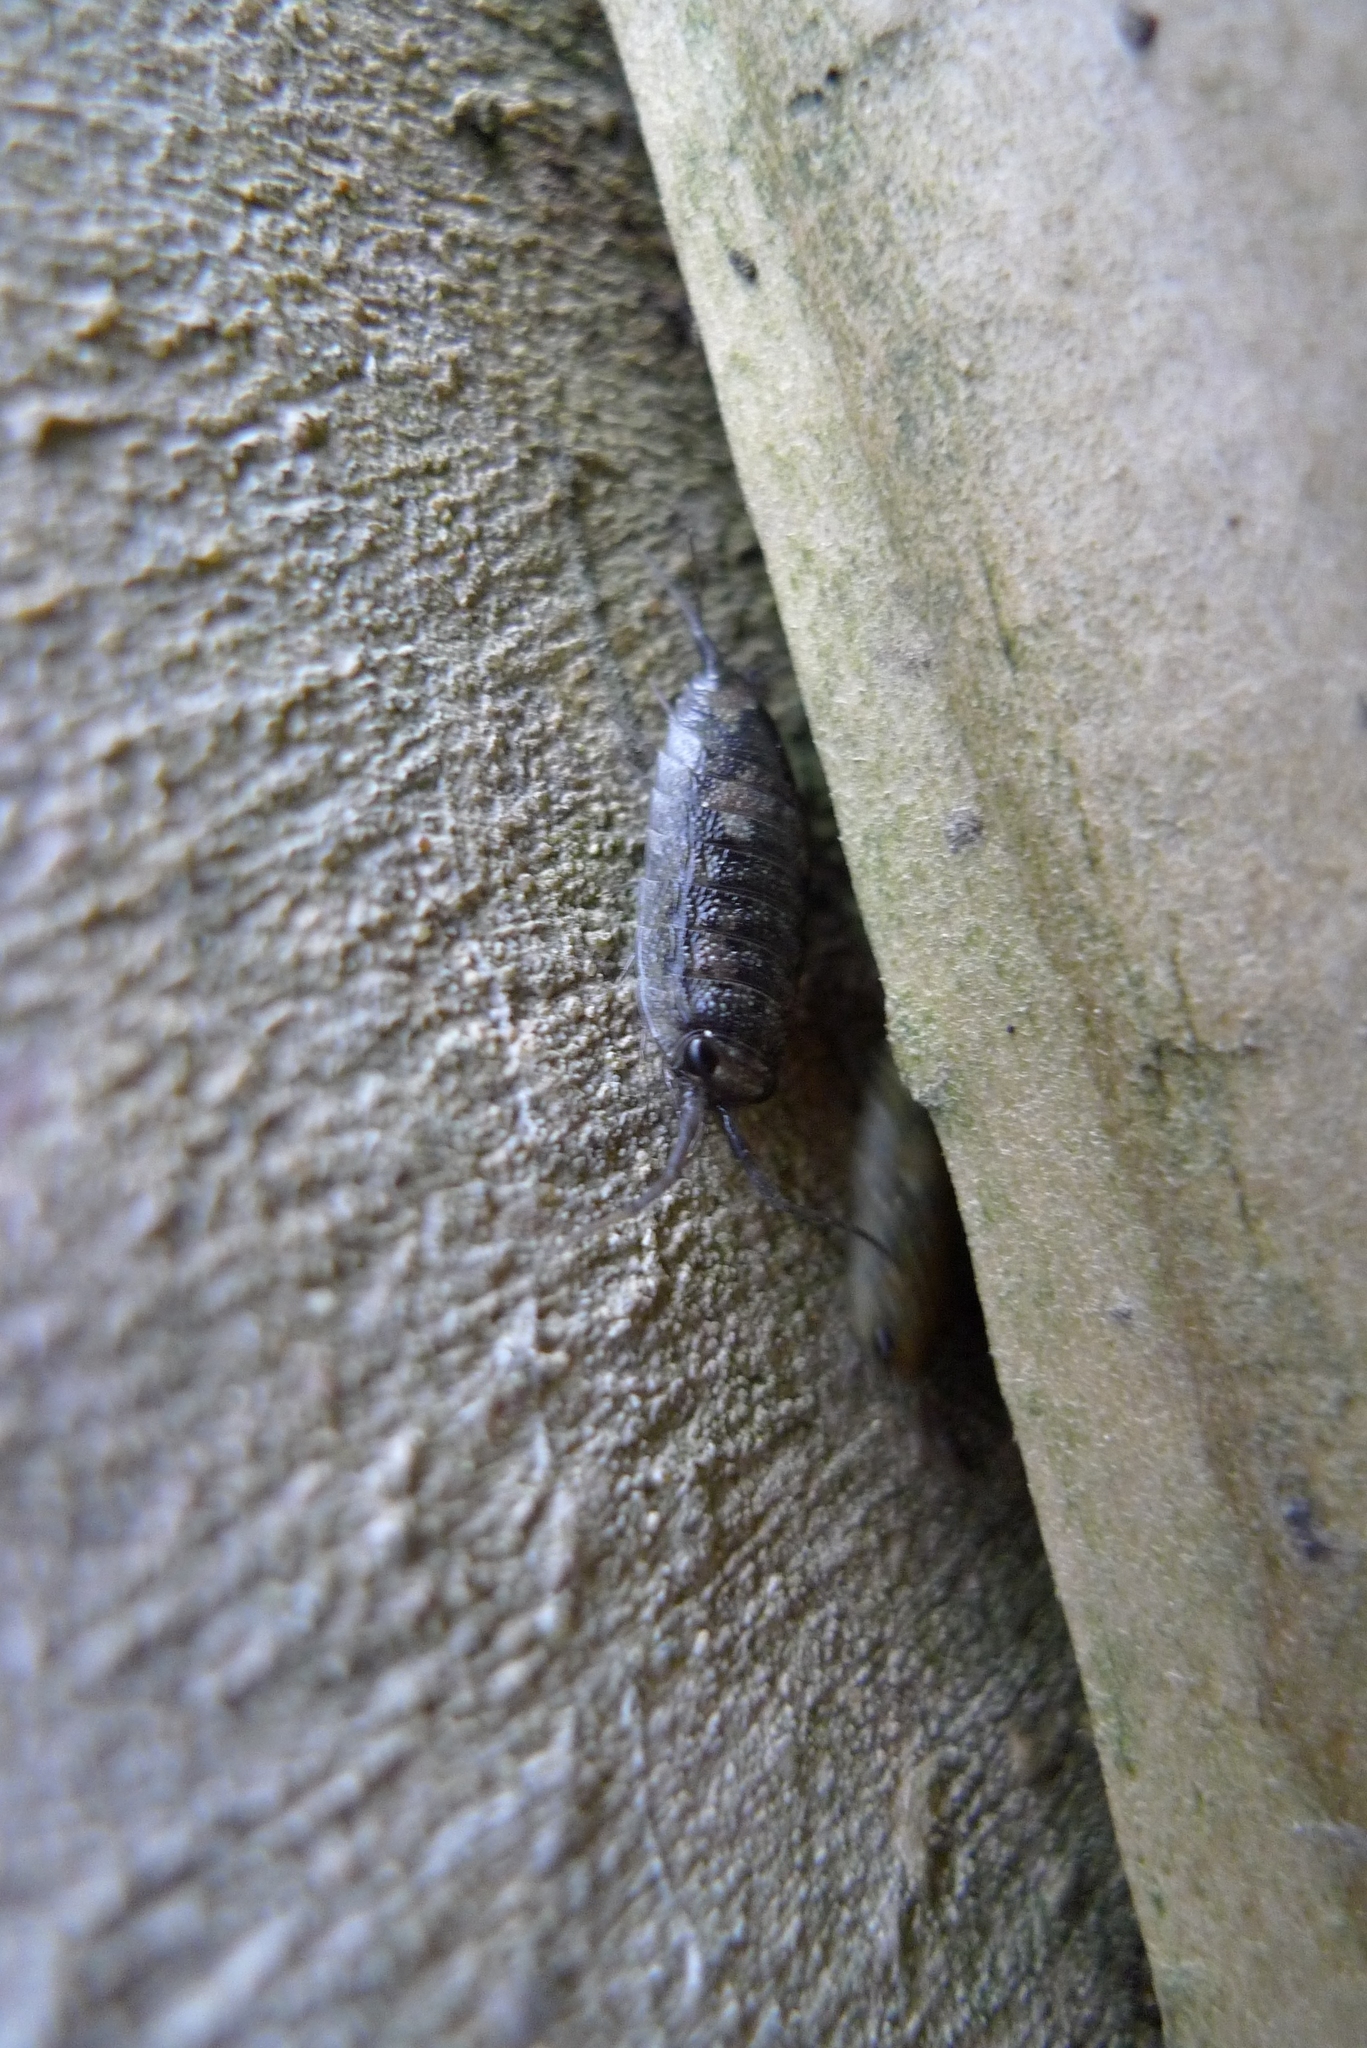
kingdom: Animalia
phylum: Arthropoda
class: Malacostraca
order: Isopoda
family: Ligiidae
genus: Ligia
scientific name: Ligia oceanica
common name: Sea slater
